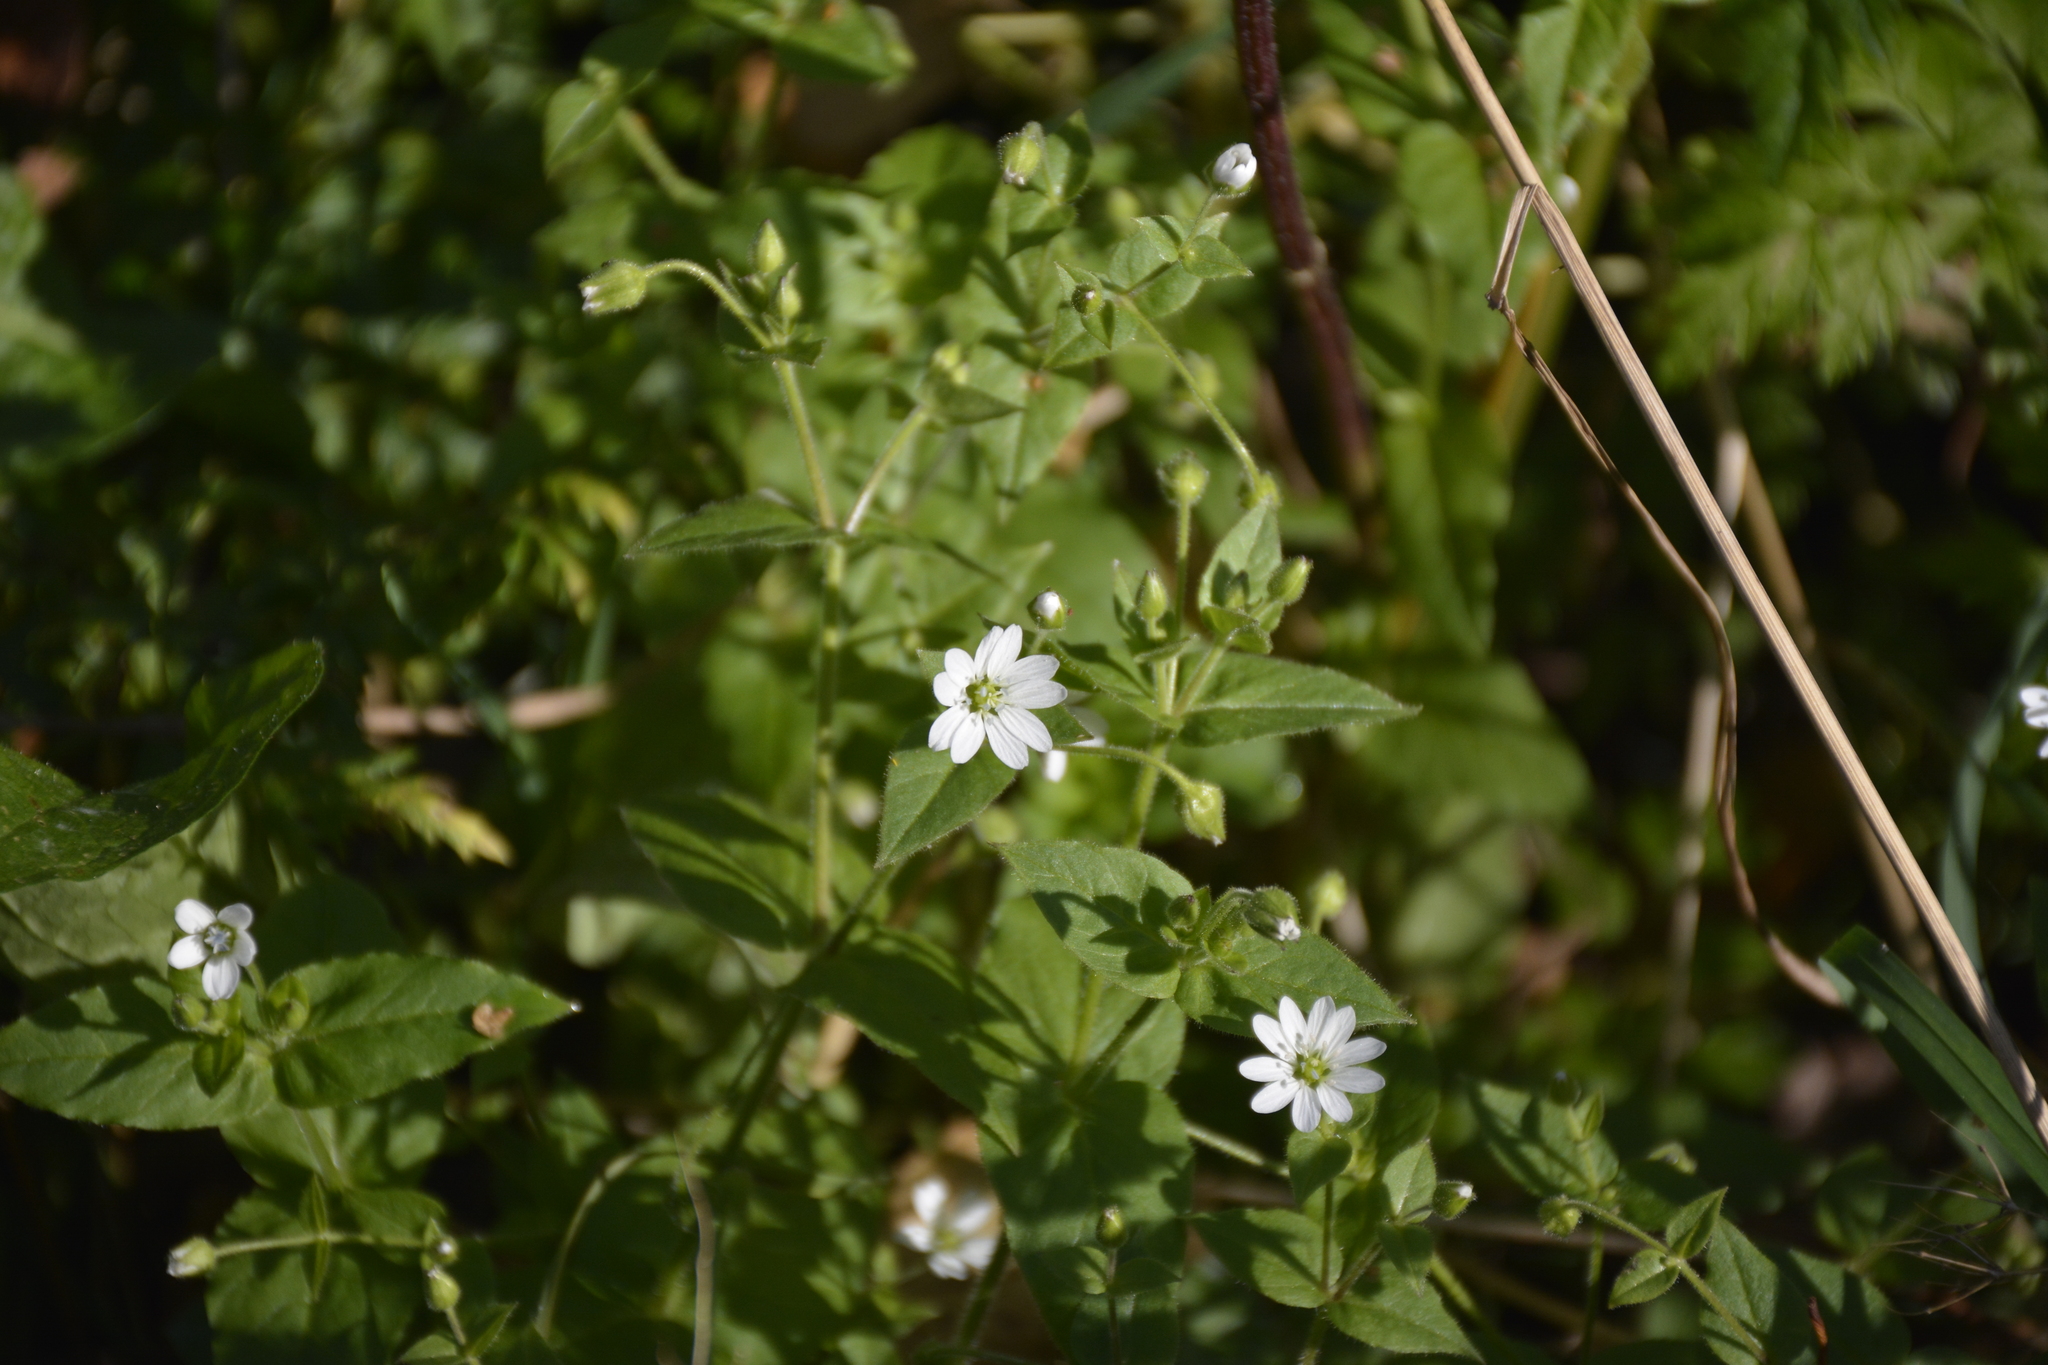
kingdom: Plantae
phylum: Tracheophyta
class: Magnoliopsida
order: Caryophyllales
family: Caryophyllaceae
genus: Stellaria
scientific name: Stellaria aquatica
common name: Water chickweed
